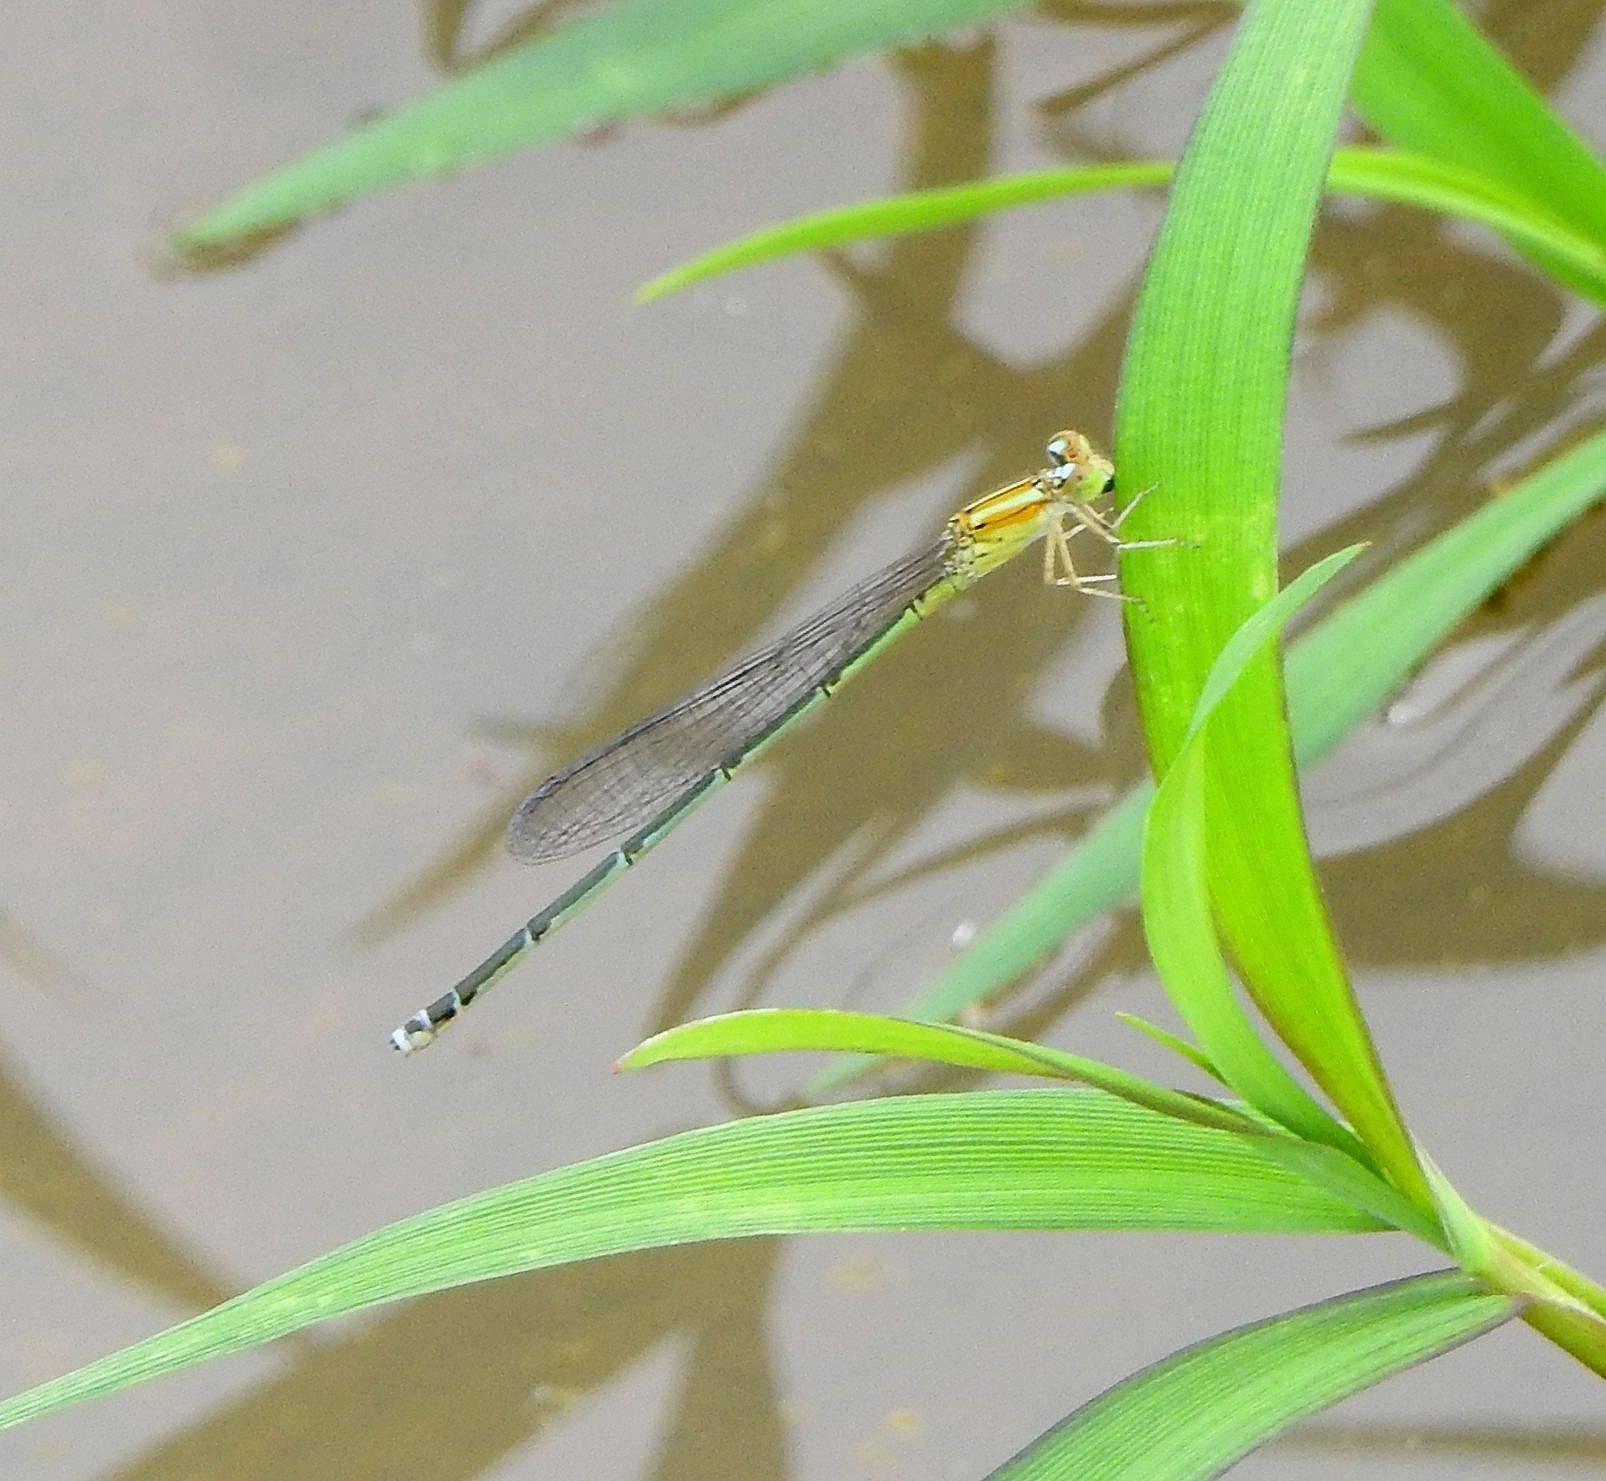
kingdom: Animalia
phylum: Arthropoda
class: Insecta
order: Odonata
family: Coenagrionidae
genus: Pseudagrion
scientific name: Pseudagrion microcephalum
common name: Blue riverdamsel
